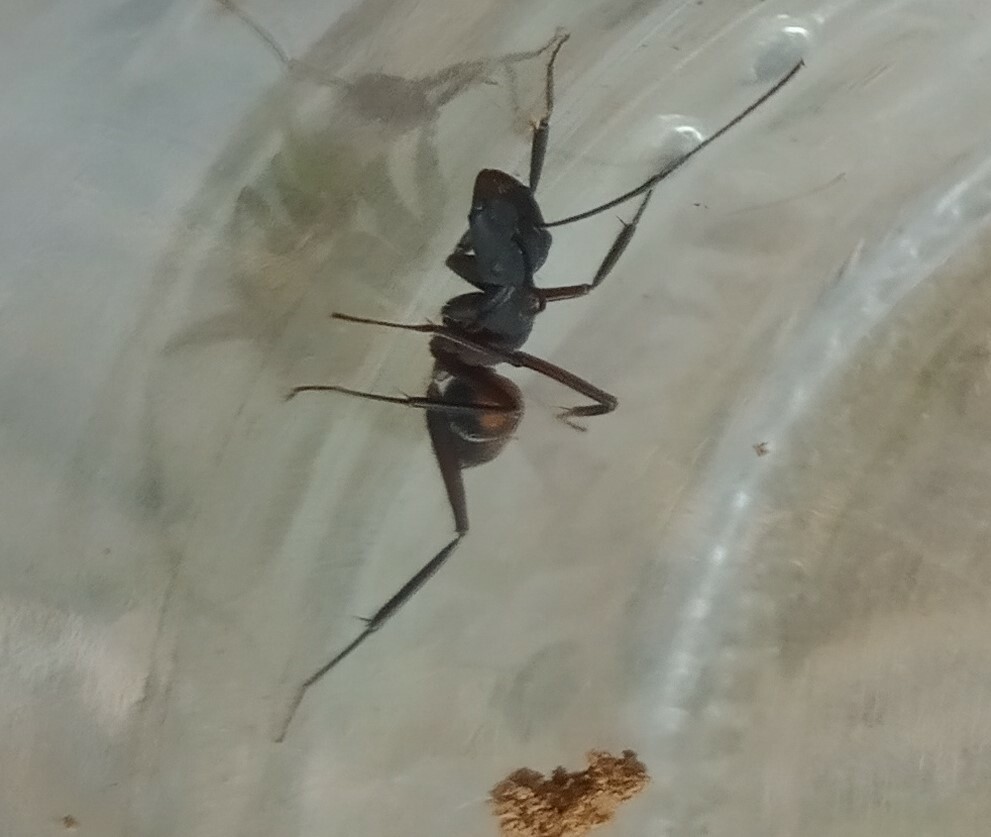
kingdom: Animalia
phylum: Arthropoda
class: Insecta
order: Hymenoptera
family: Formicidae
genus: Camponotus
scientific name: Camponotus cruentatus
